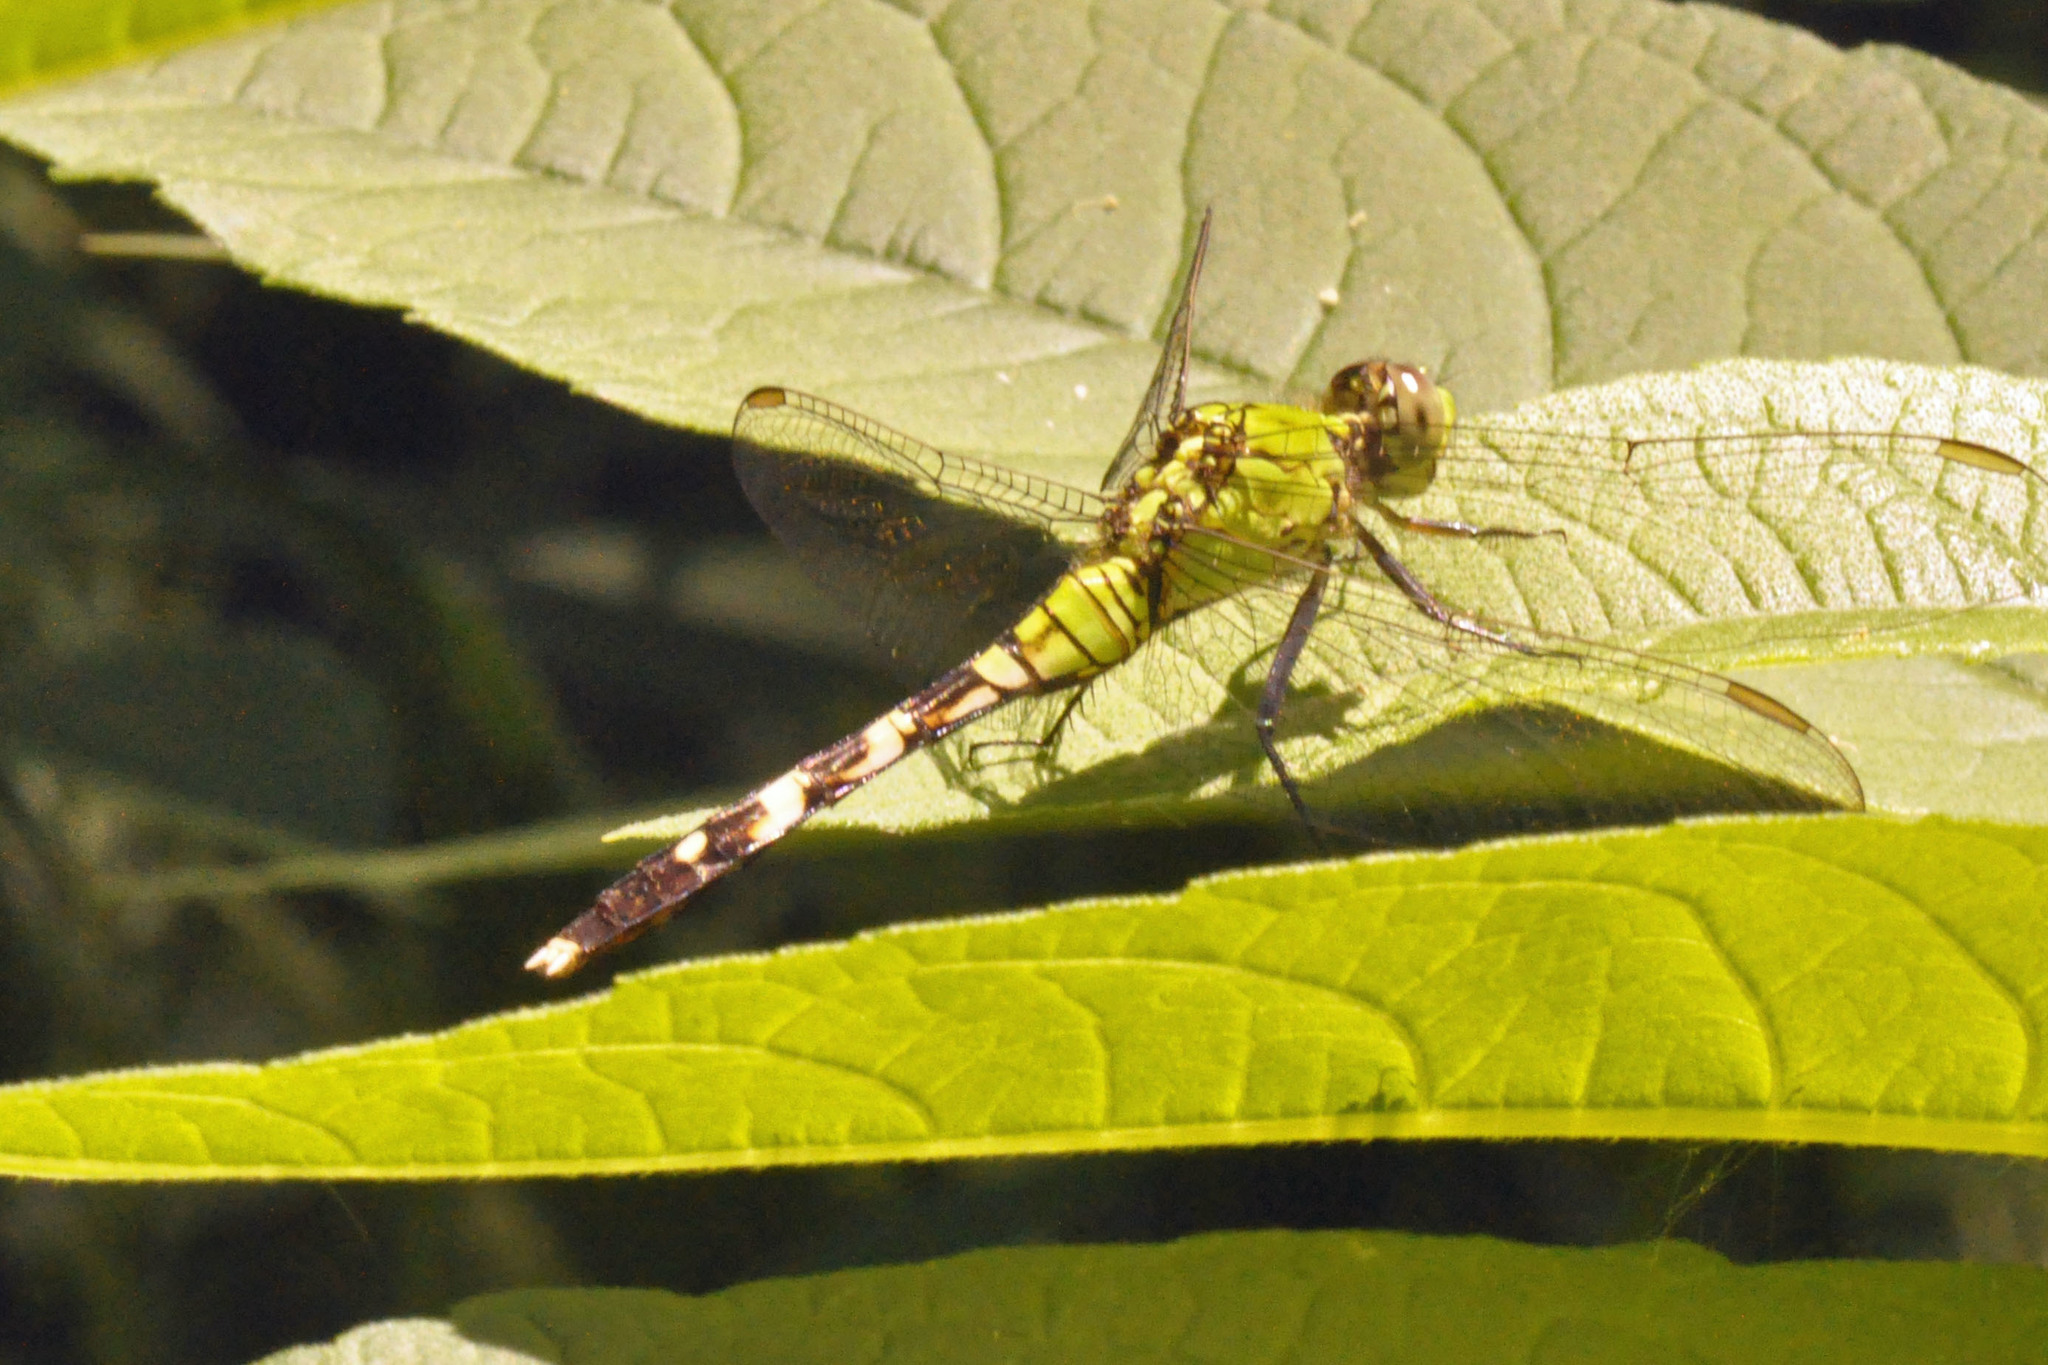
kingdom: Animalia
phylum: Arthropoda
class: Insecta
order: Odonata
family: Libellulidae
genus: Erythemis
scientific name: Erythemis simplicicollis
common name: Eastern pondhawk
